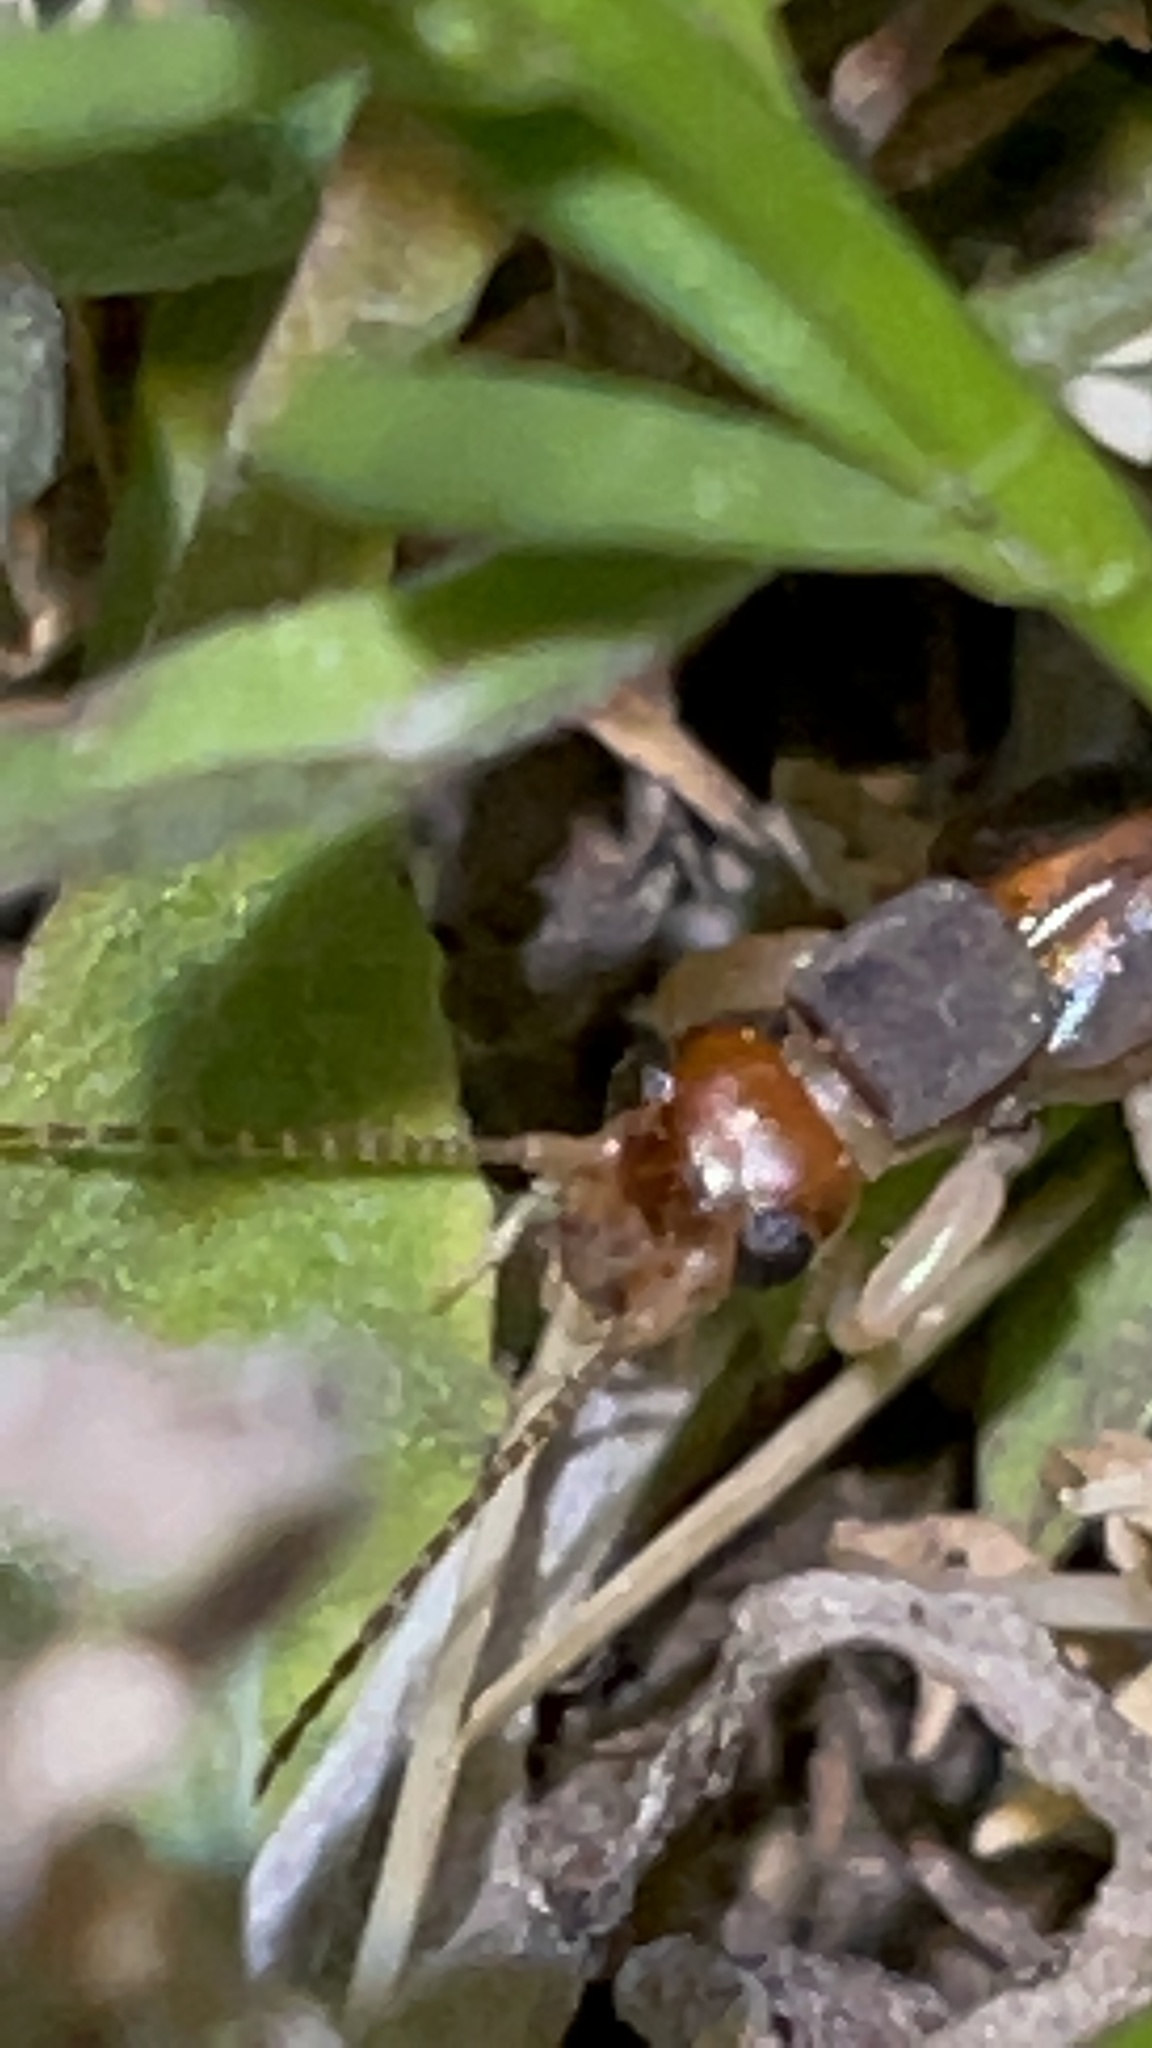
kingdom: Animalia
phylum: Arthropoda
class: Insecta
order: Dermaptera
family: Labiduridae
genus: Labidura
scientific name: Labidura riparia
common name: Striped earwig
